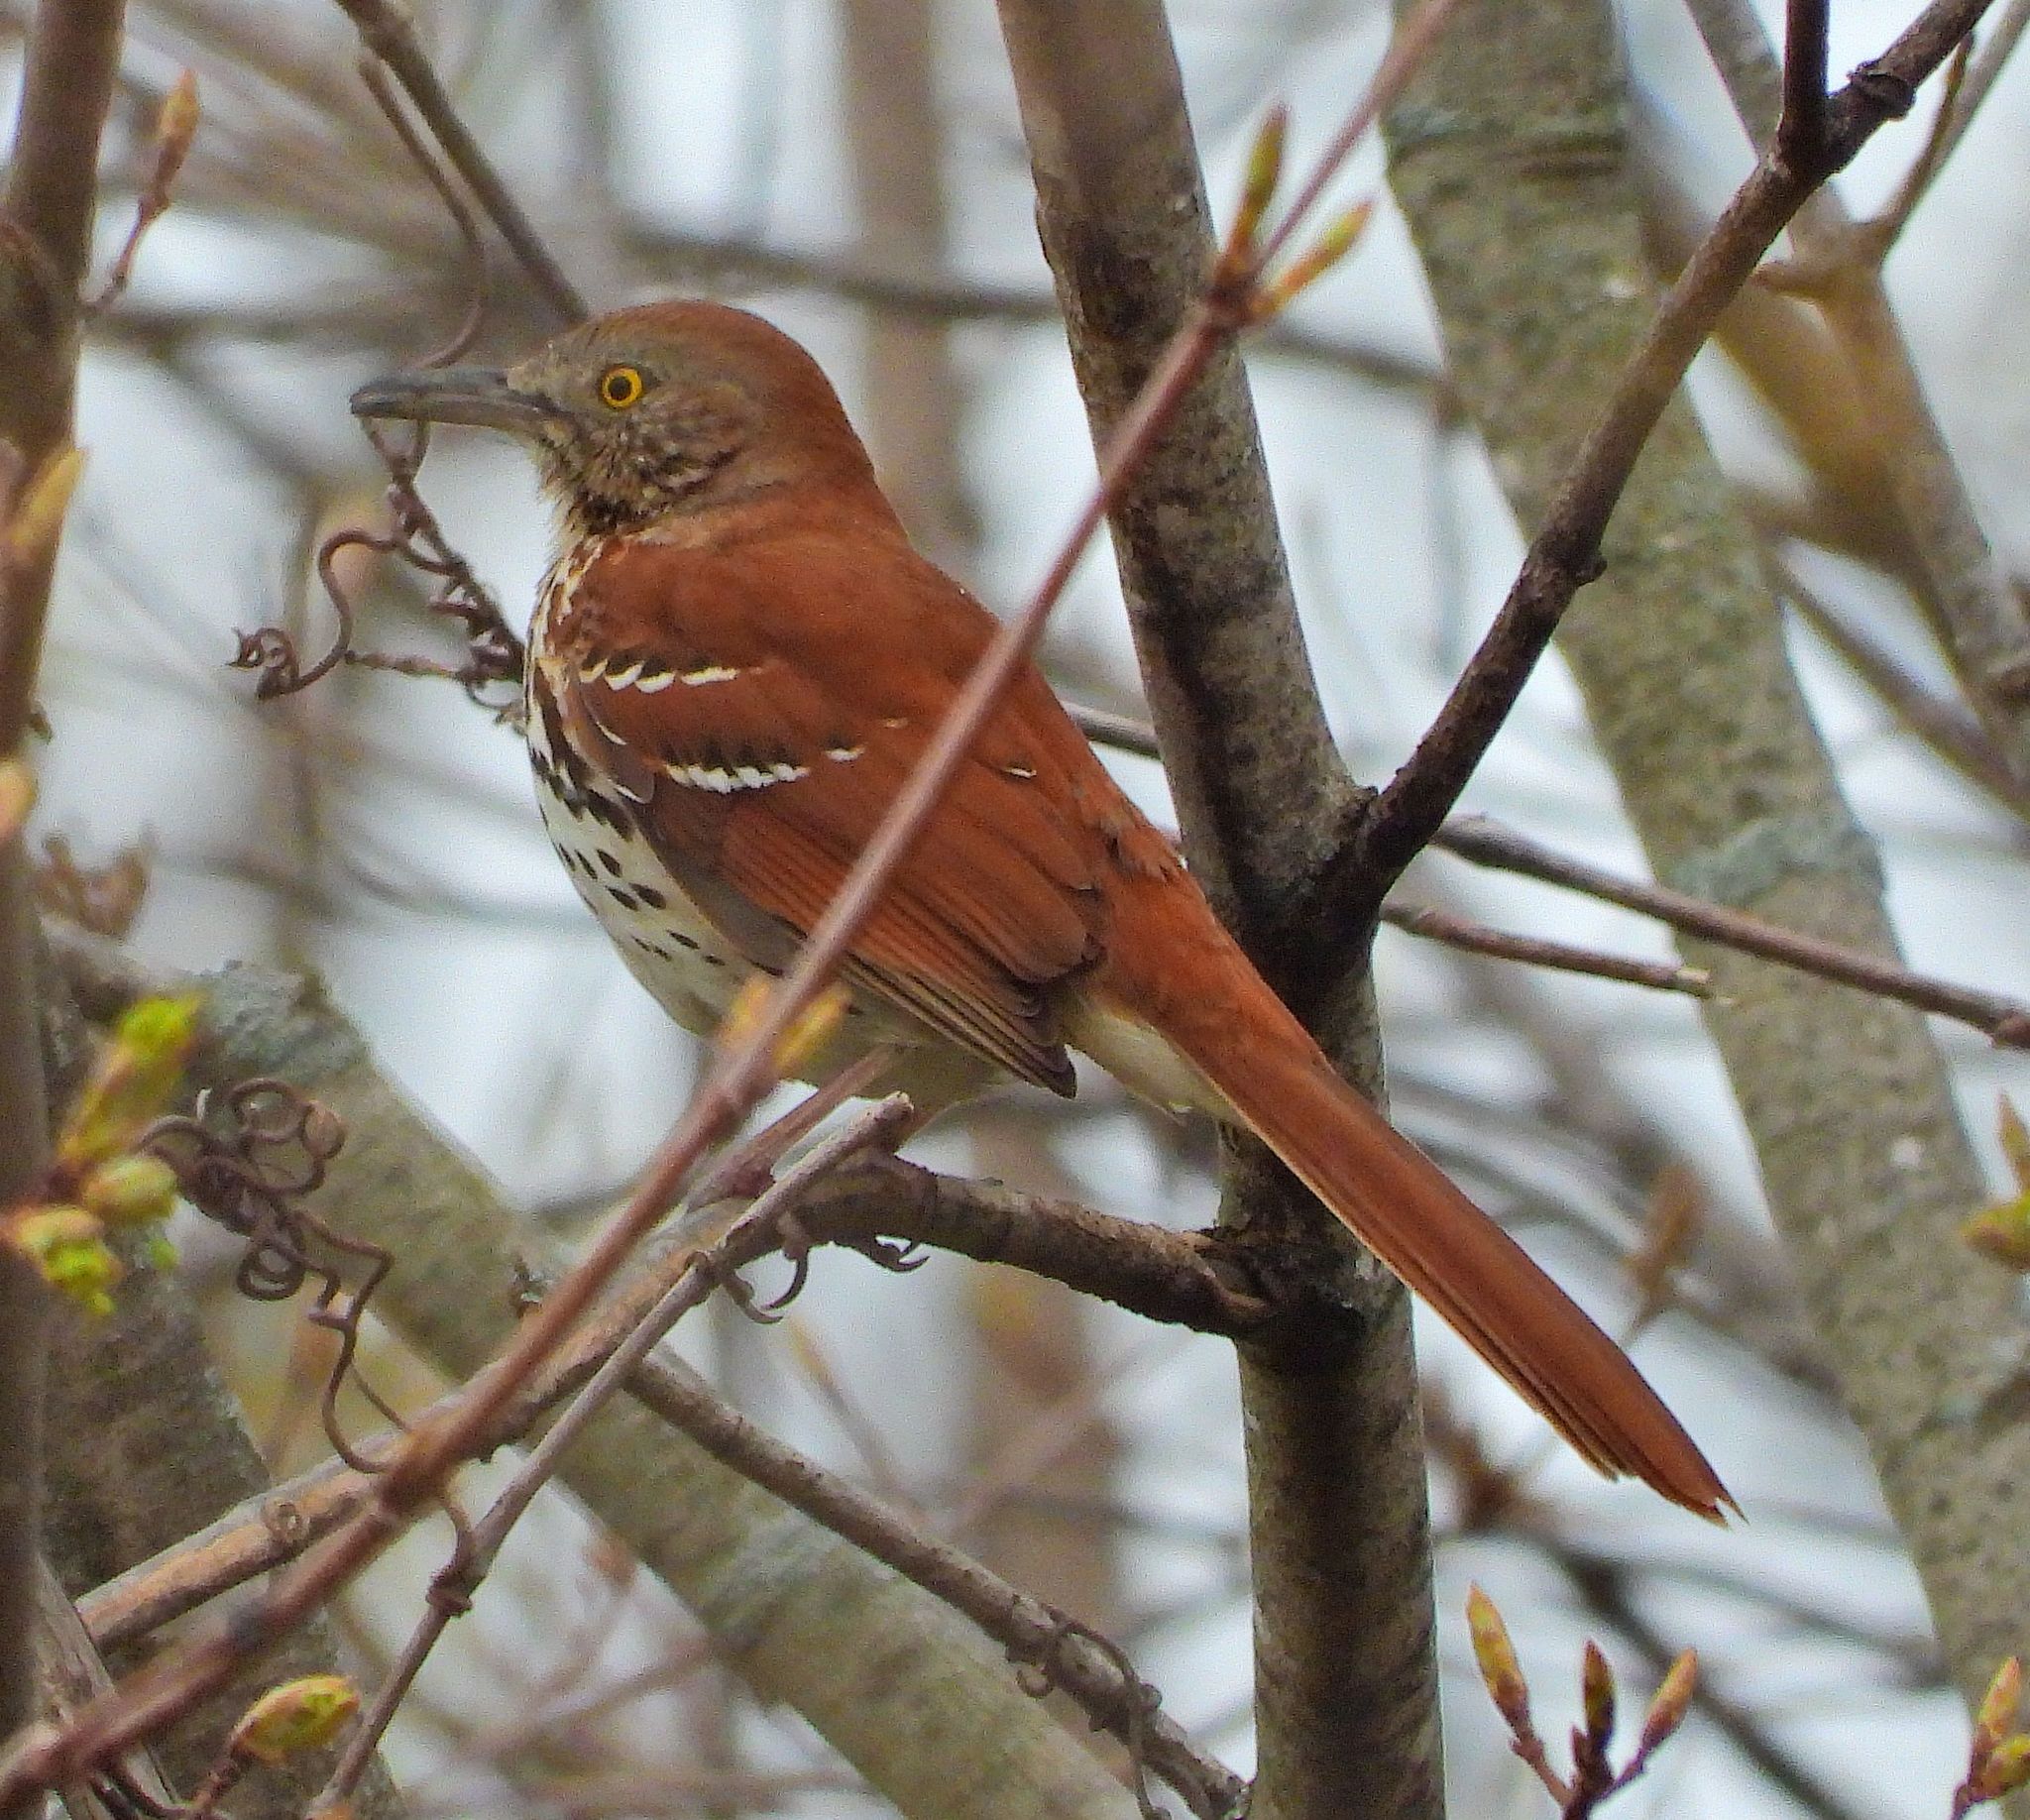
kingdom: Animalia
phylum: Chordata
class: Aves
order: Passeriformes
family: Mimidae
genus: Toxostoma
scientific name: Toxostoma rufum
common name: Brown thrasher
